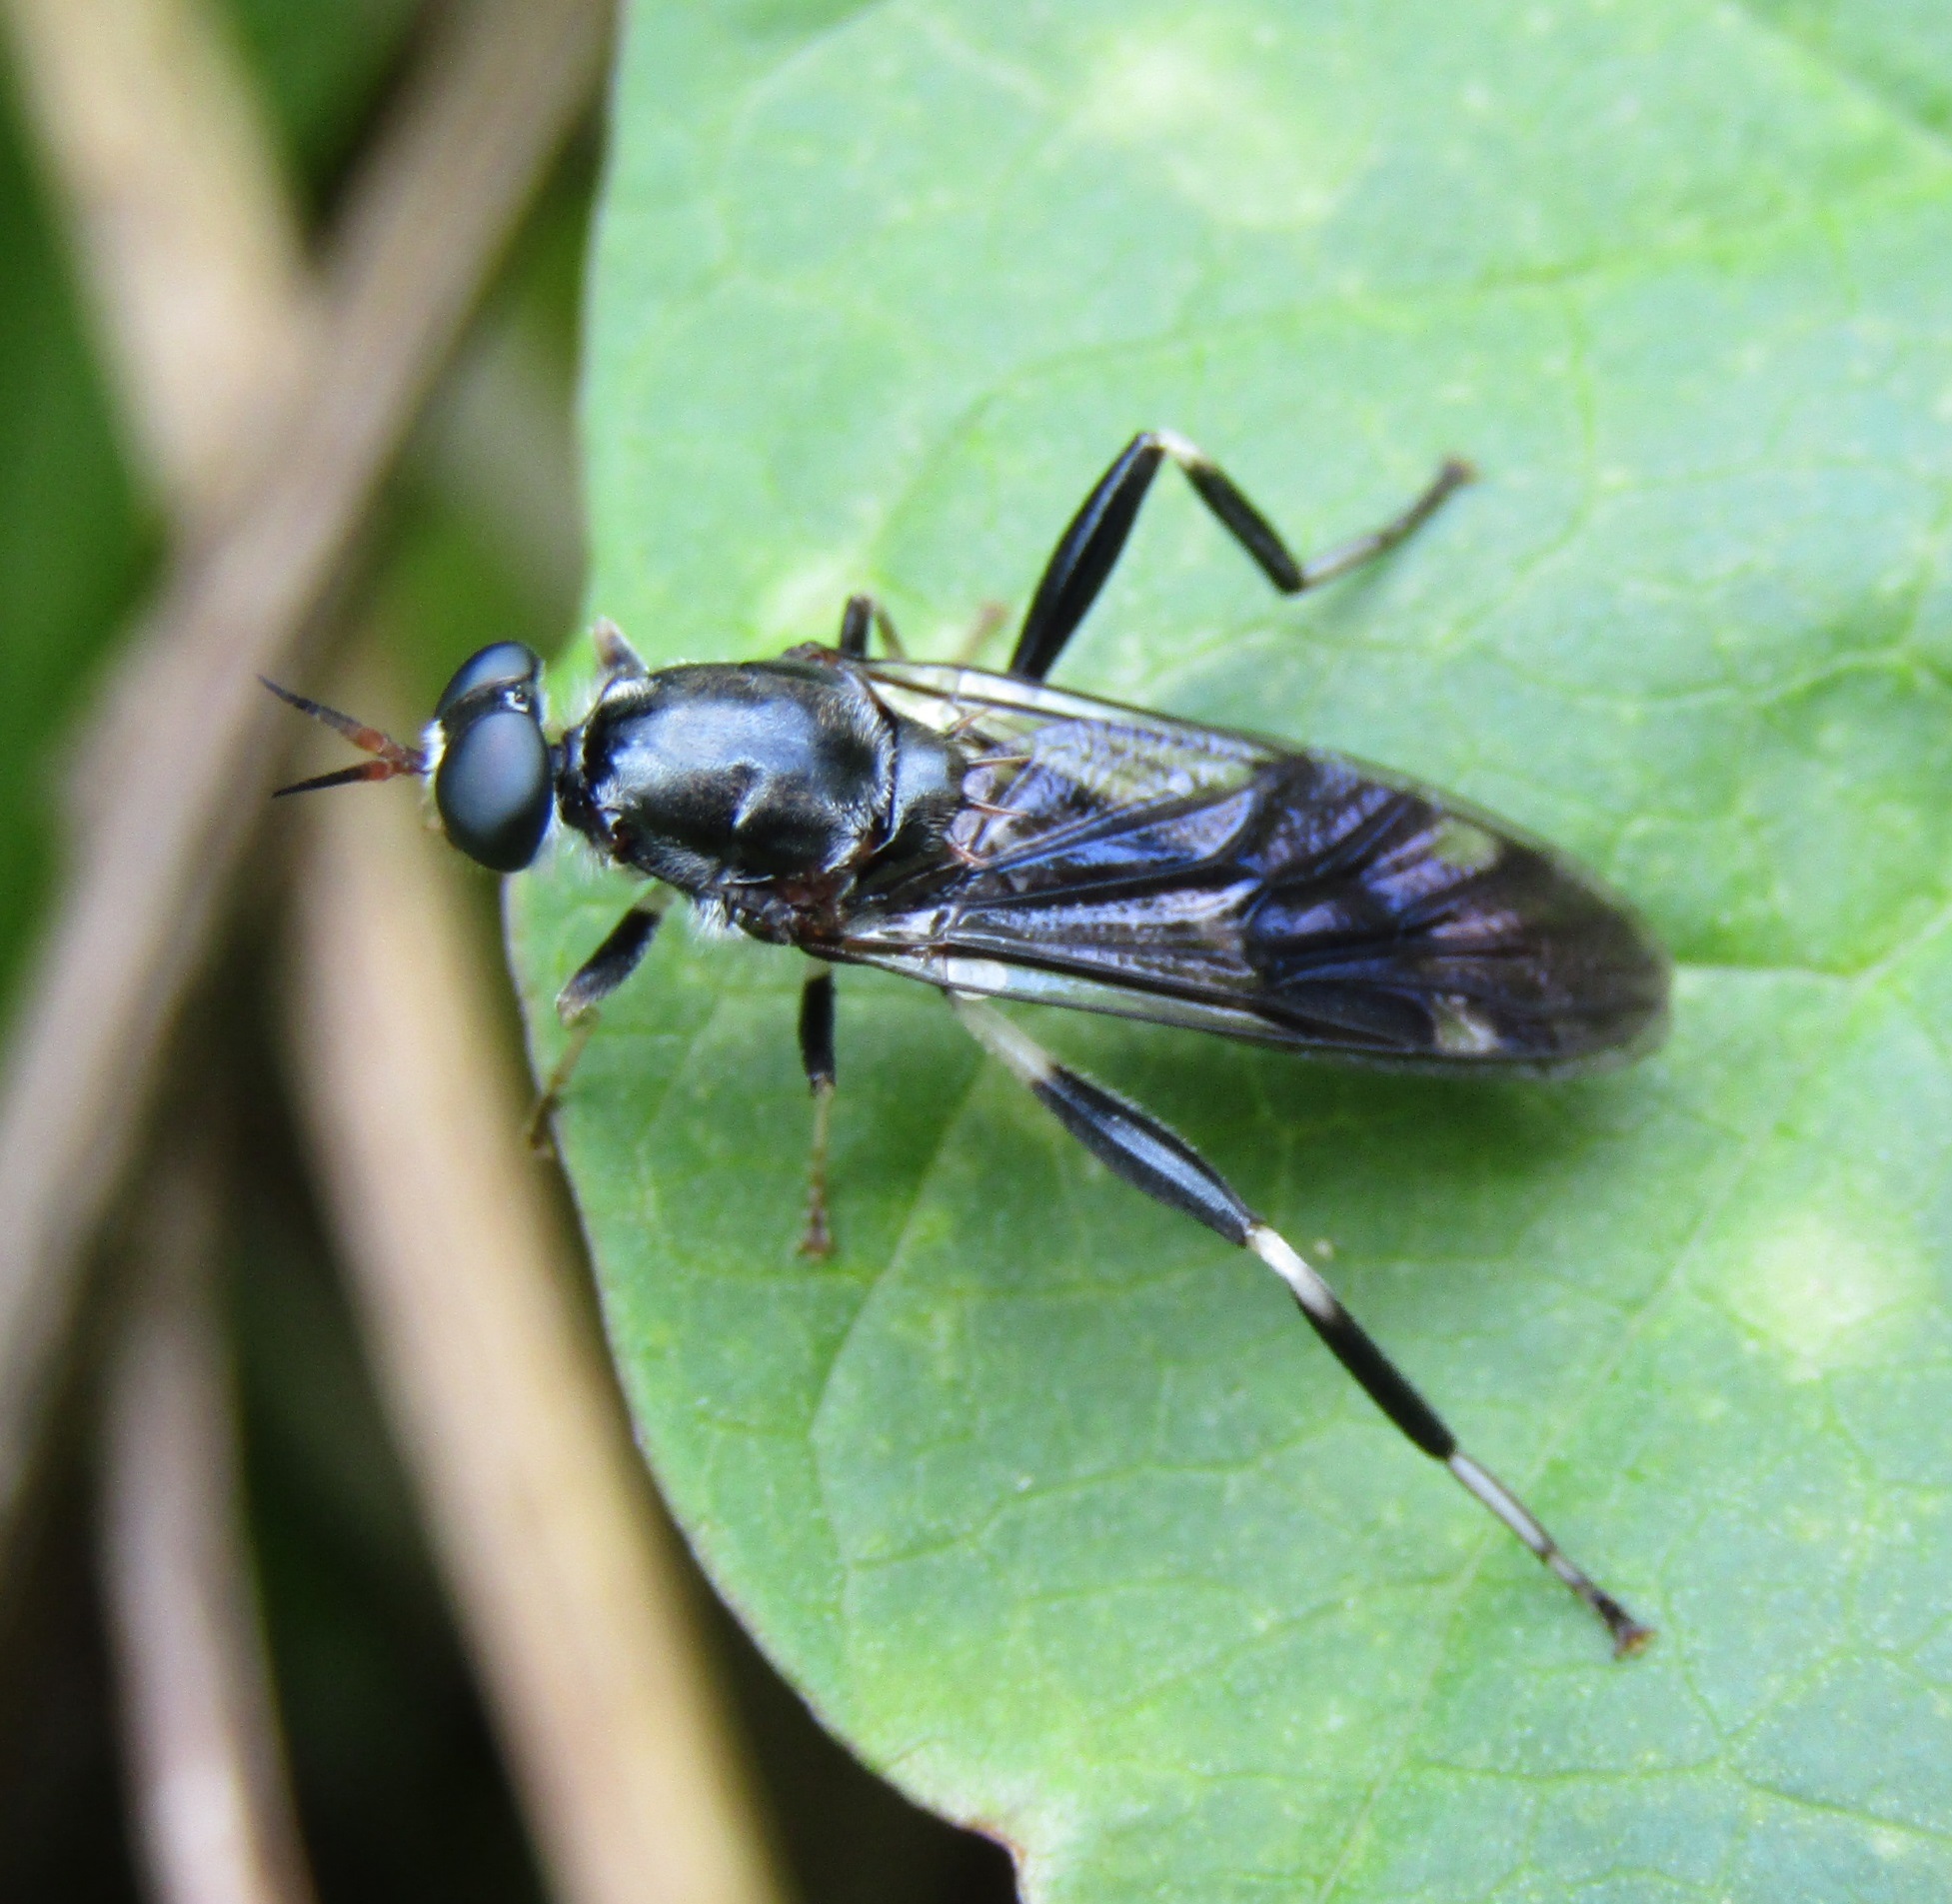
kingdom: Animalia
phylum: Arthropoda
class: Insecta
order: Diptera
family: Stratiomyidae
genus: Exaireta
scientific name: Exaireta spinigera
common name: Blue soldier fly
